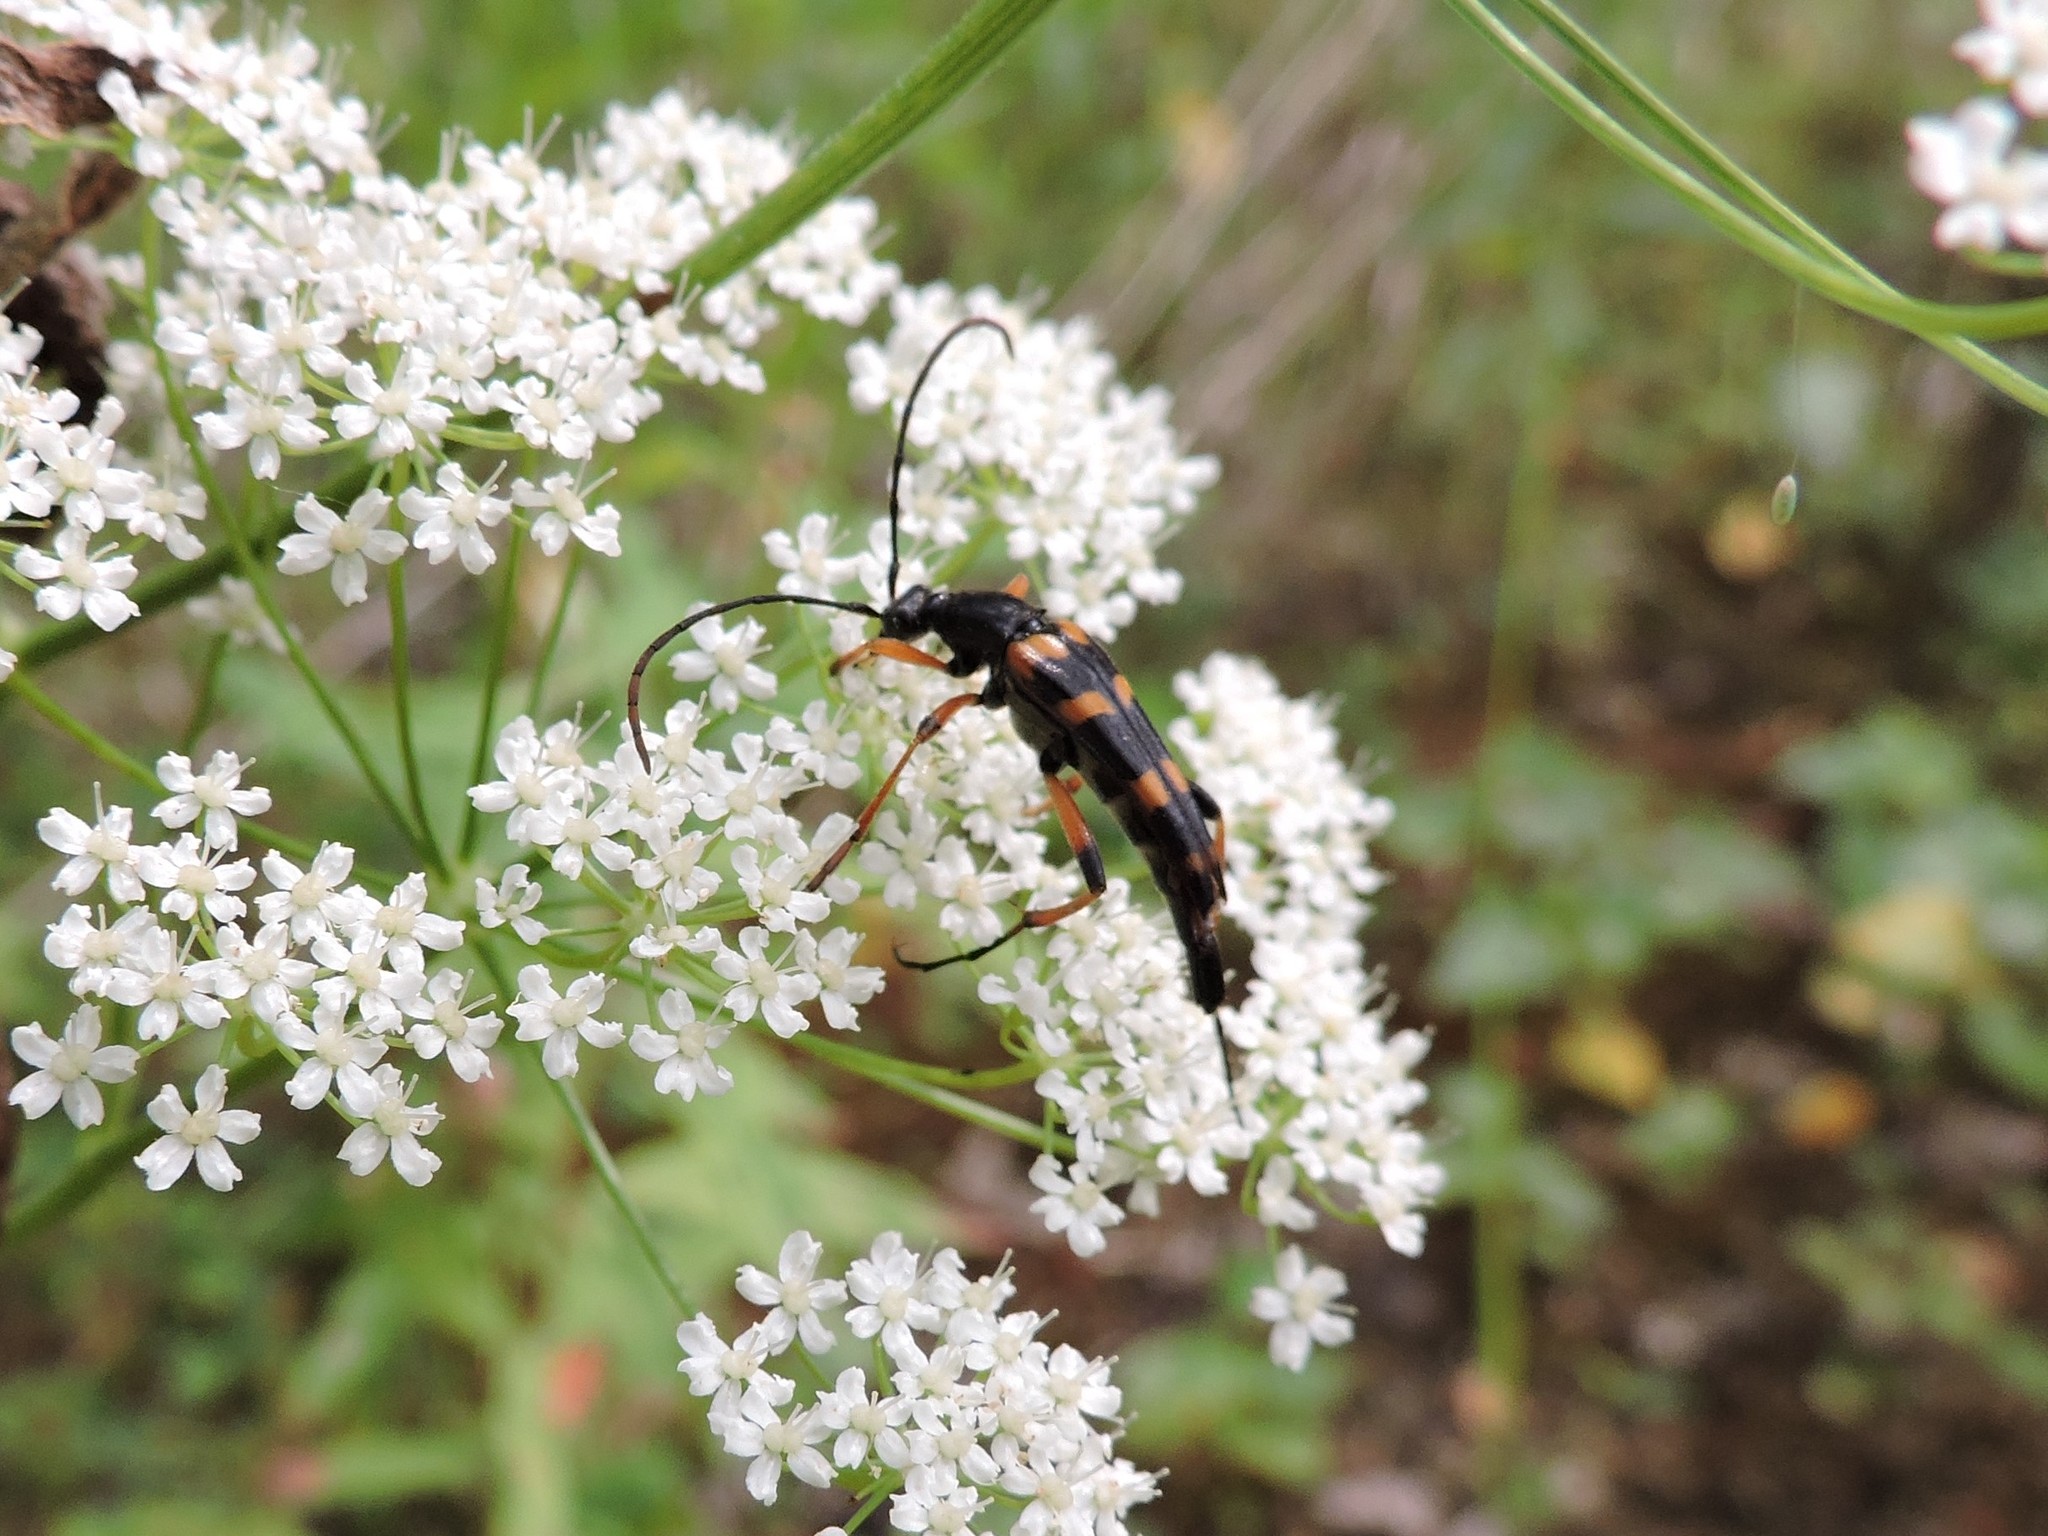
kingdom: Animalia
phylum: Arthropoda
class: Insecta
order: Coleoptera
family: Cerambycidae
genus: Strangalia
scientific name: Strangalia attenuata
